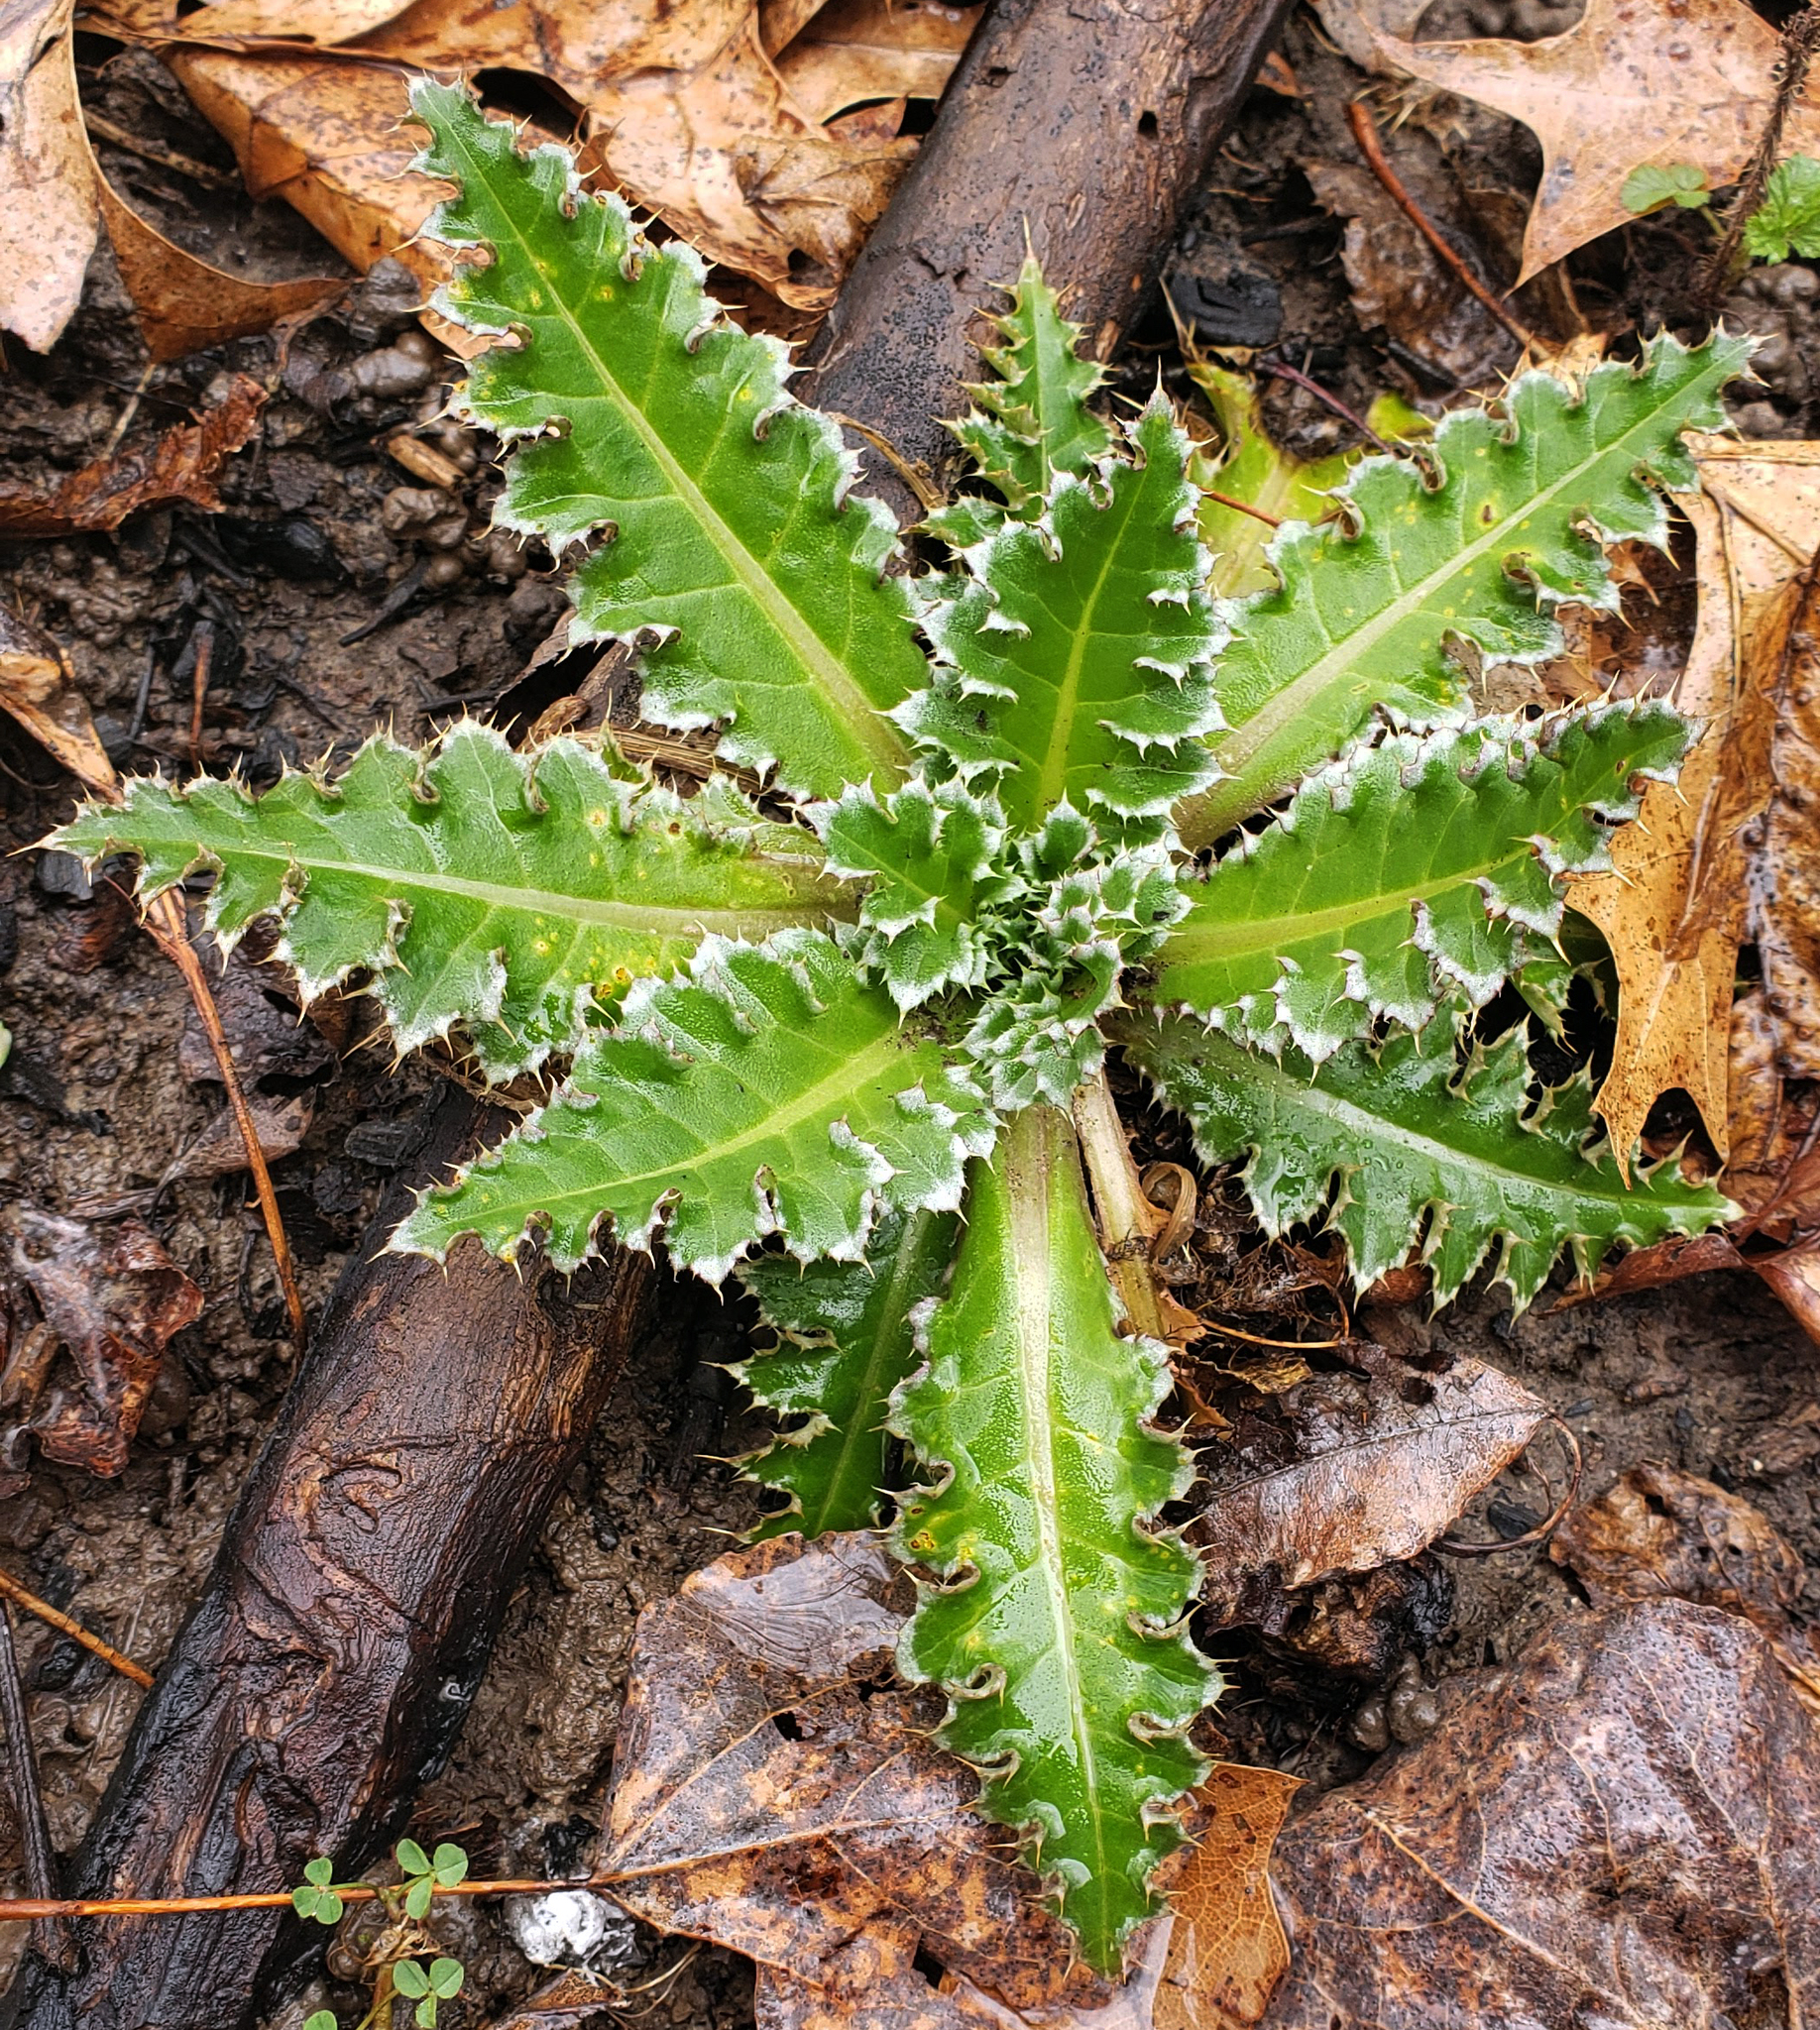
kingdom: Plantae
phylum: Tracheophyta
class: Magnoliopsida
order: Asterales
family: Asteraceae
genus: Carduus
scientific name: Carduus nutans
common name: Musk thistle
